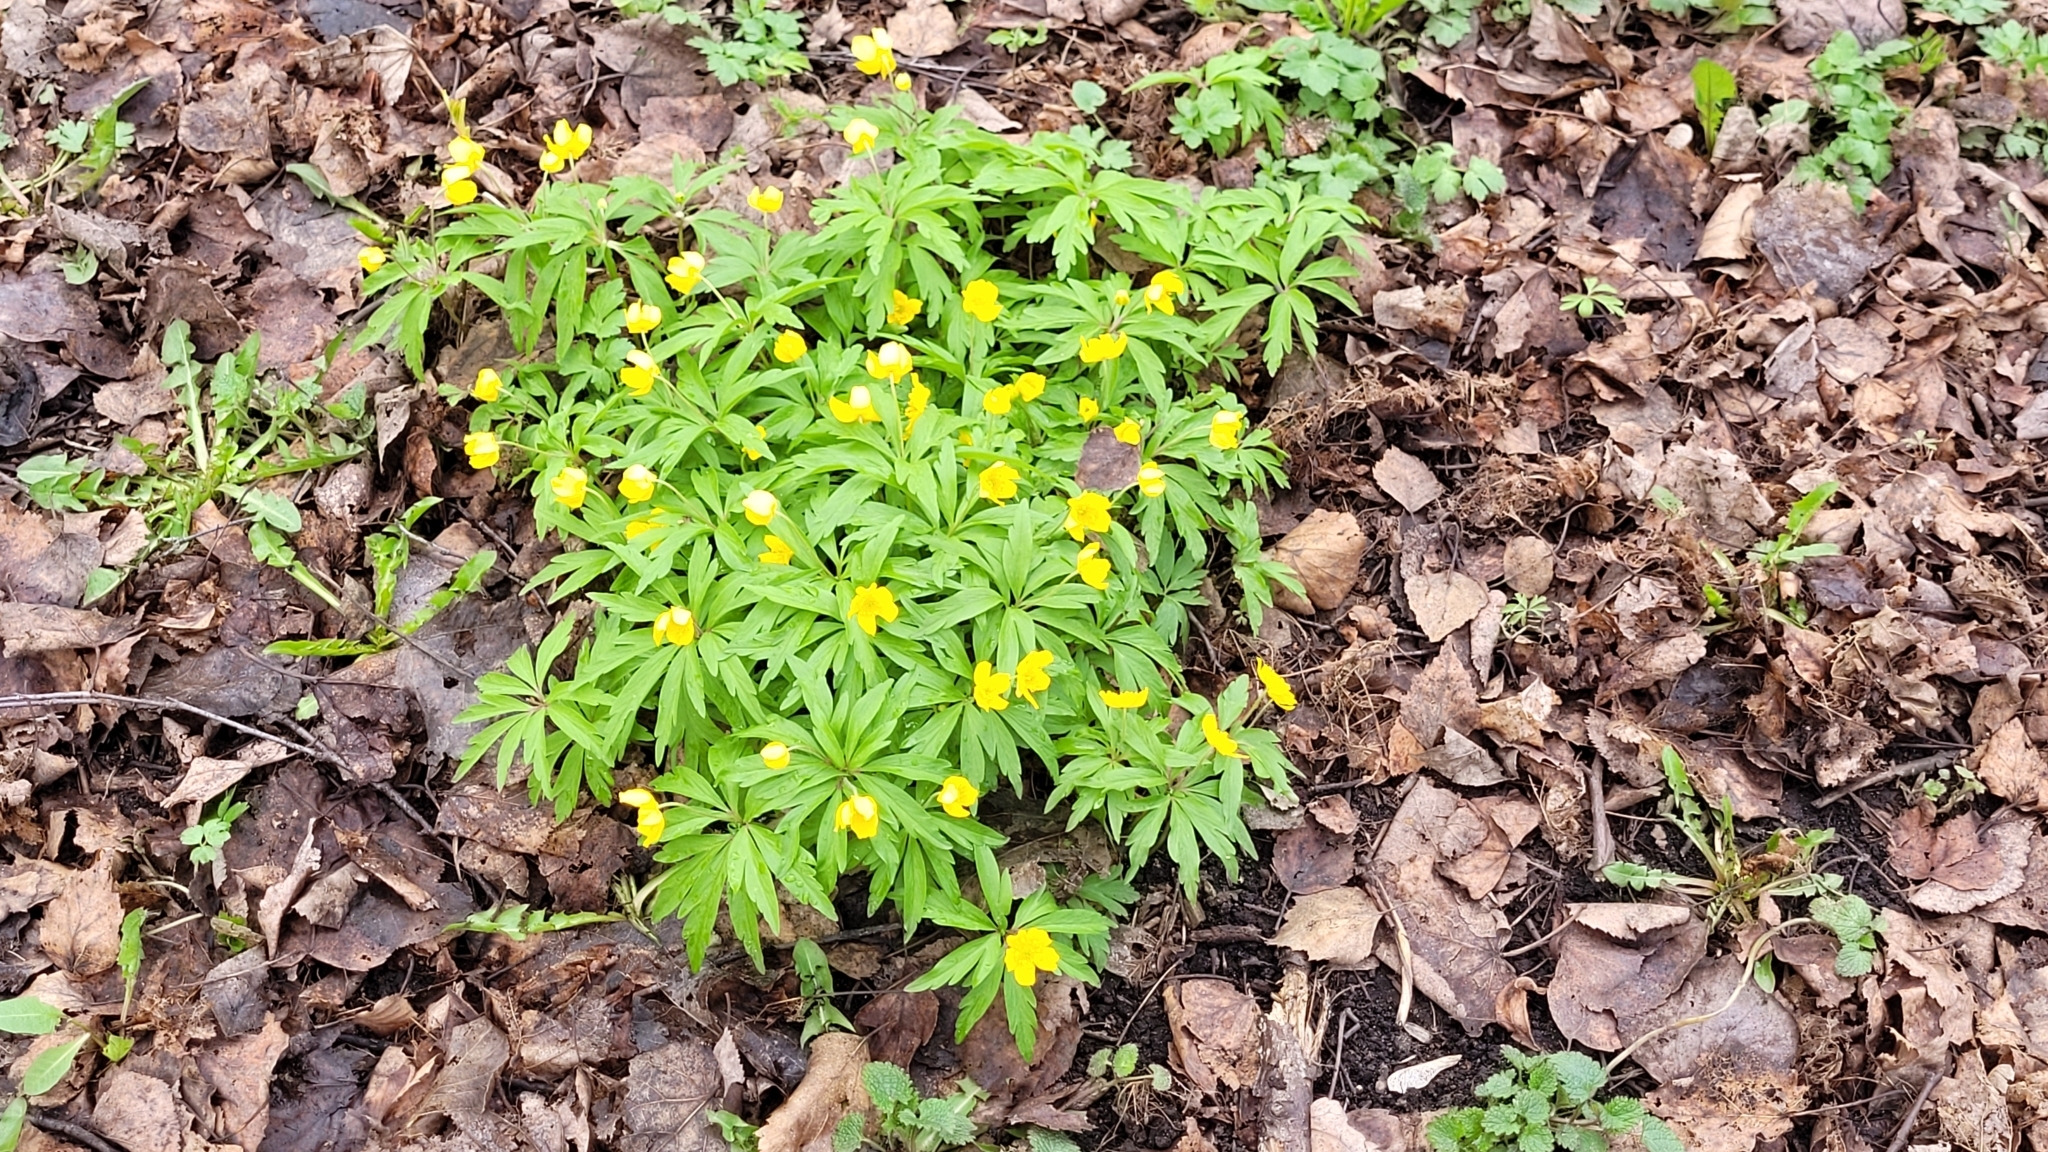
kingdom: Plantae
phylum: Tracheophyta
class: Magnoliopsida
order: Ranunculales
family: Ranunculaceae
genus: Anemone
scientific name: Anemone ranunculoides
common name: Yellow anemone
